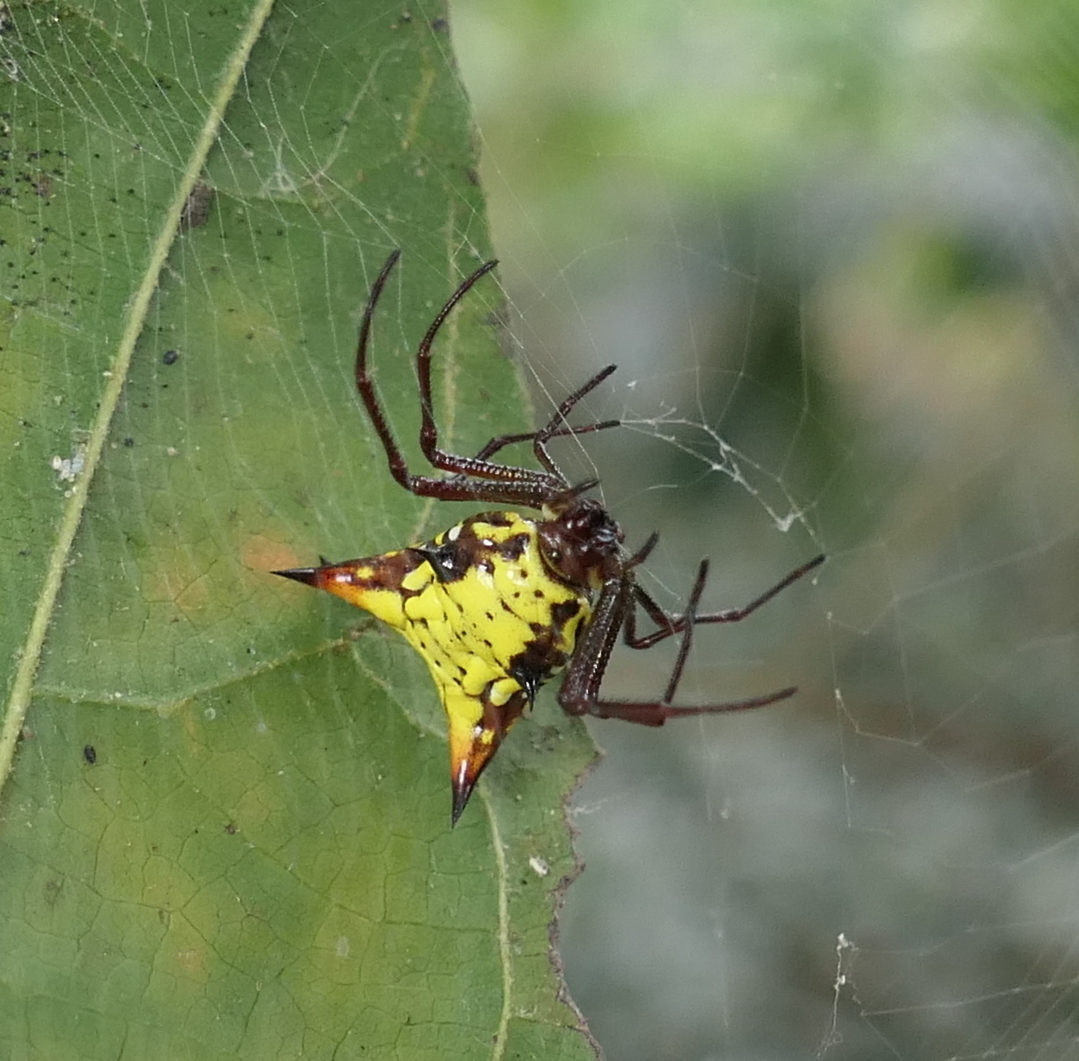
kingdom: Animalia
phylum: Arthropoda
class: Arachnida
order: Araneae
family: Araneidae
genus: Micrathena
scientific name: Micrathena fissispina
